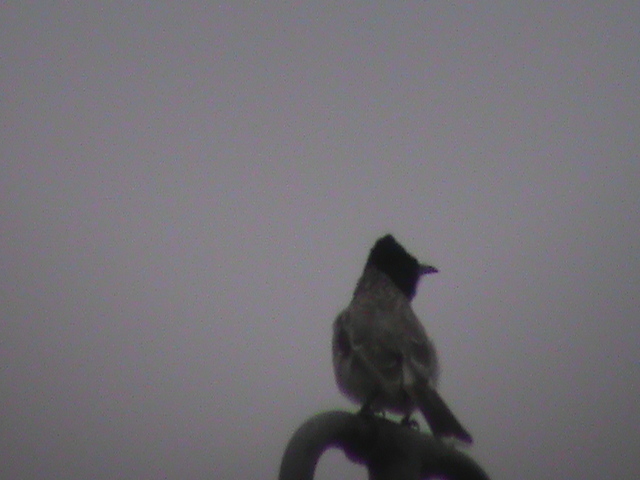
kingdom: Animalia
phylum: Chordata
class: Aves
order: Passeriformes
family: Pycnonotidae
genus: Pycnonotus
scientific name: Pycnonotus cafer
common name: Red-vented bulbul
